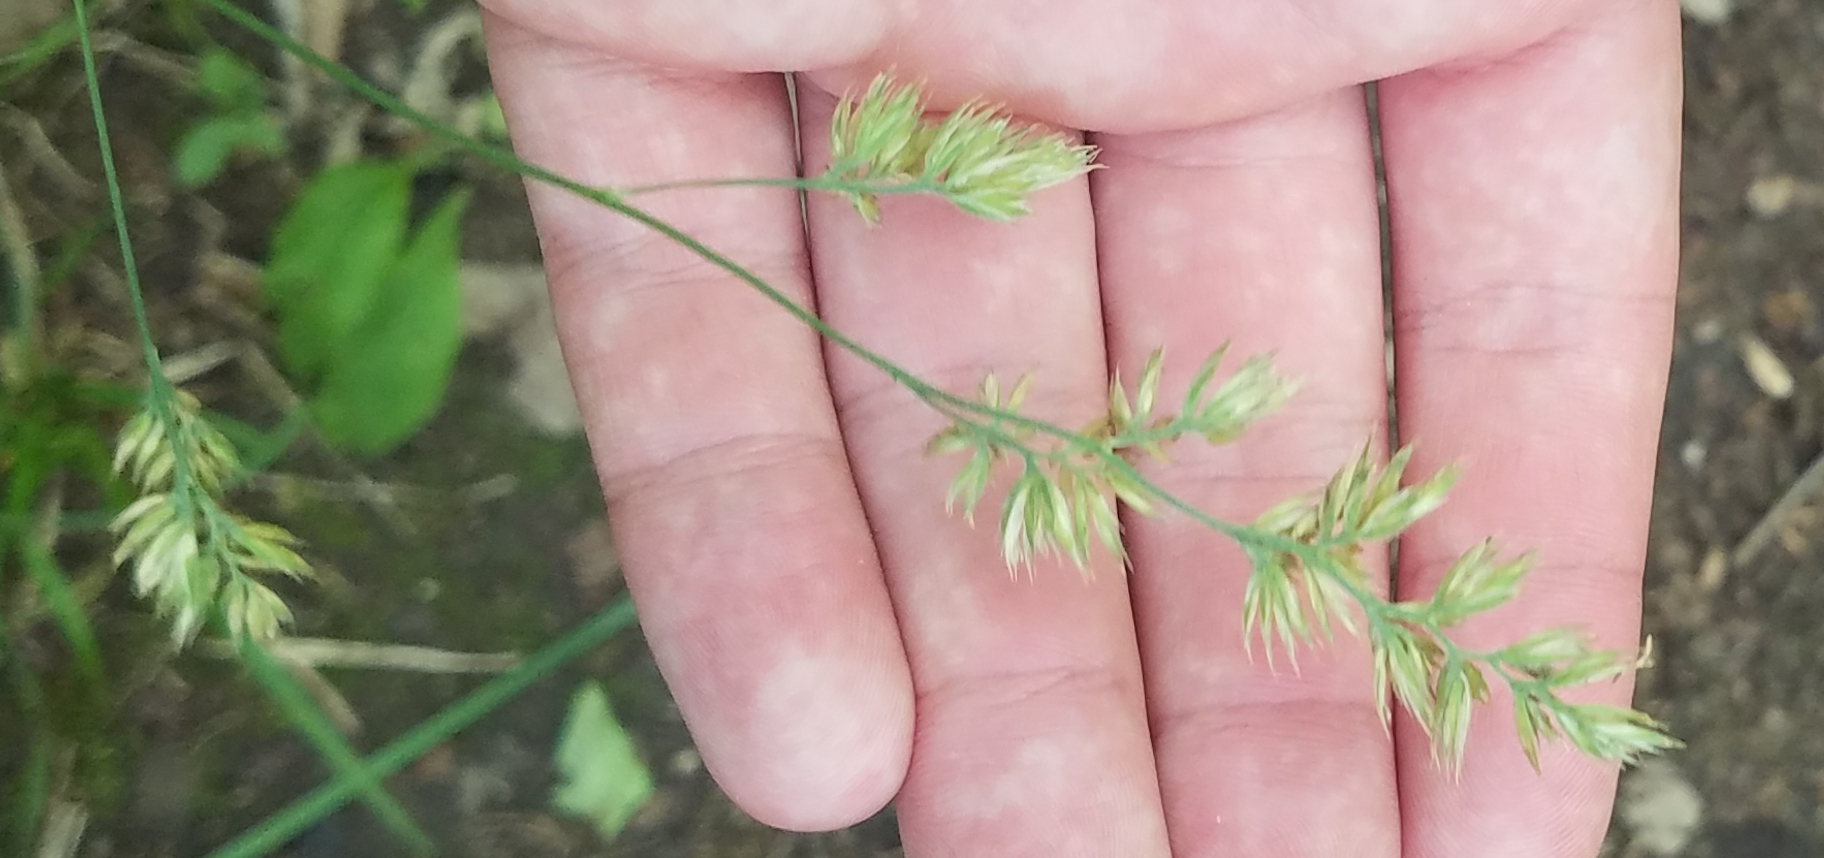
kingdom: Plantae
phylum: Tracheophyta
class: Liliopsida
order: Poales
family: Poaceae
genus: Dactylis
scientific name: Dactylis glomerata
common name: Orchardgrass
